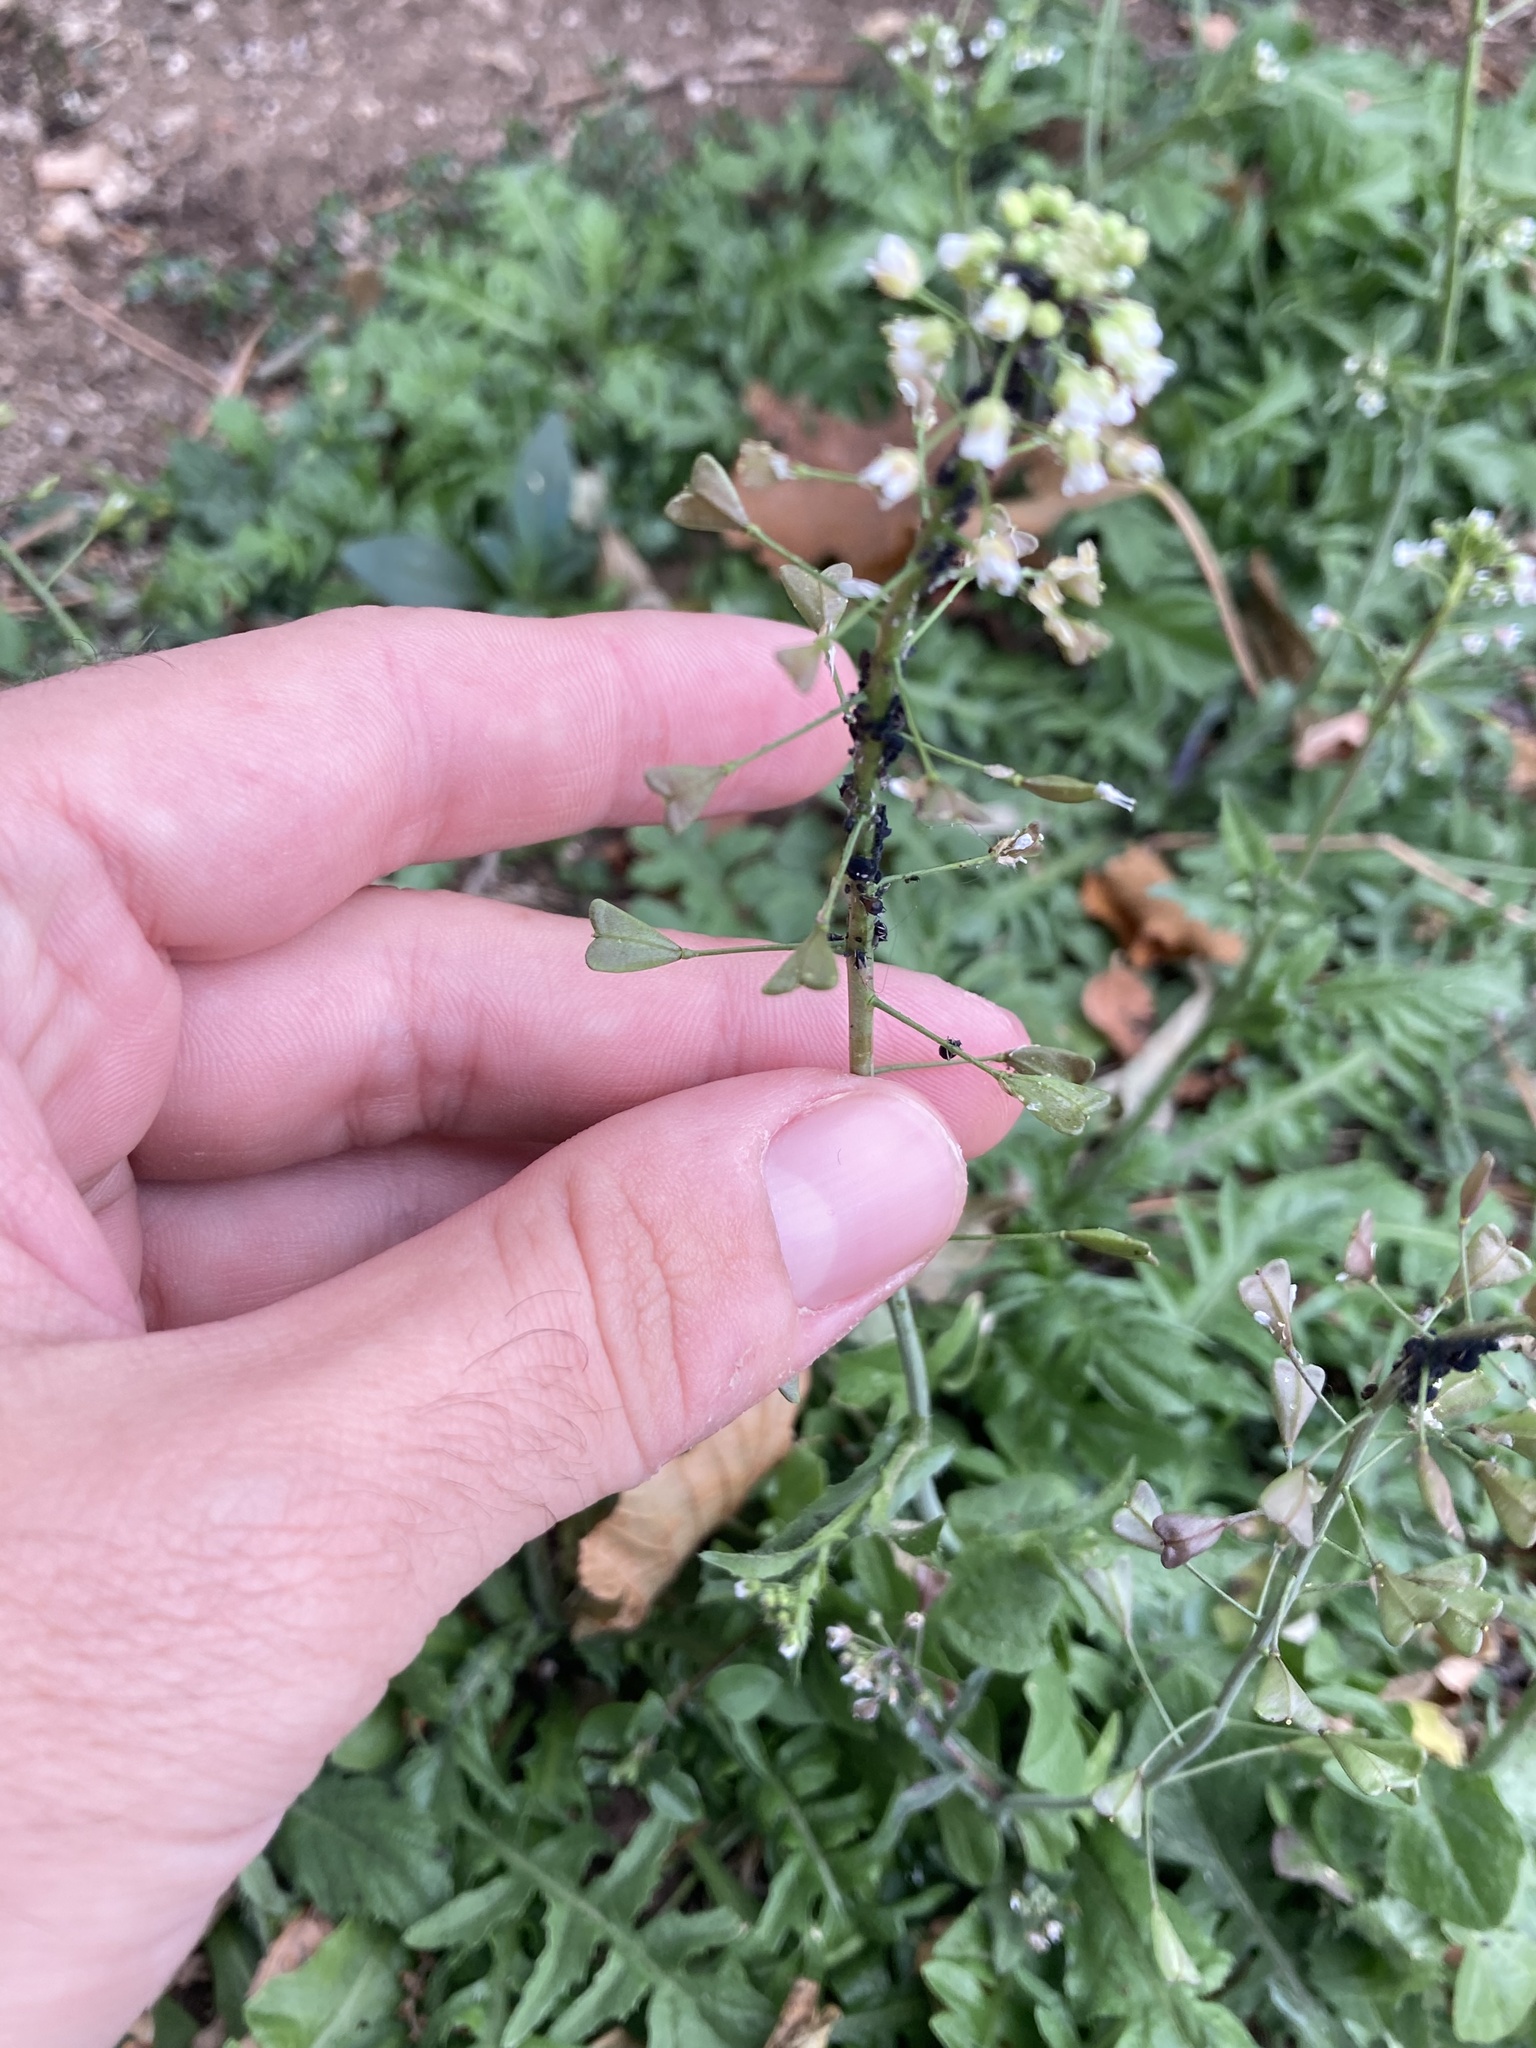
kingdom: Plantae
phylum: Tracheophyta
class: Magnoliopsida
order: Brassicales
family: Brassicaceae
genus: Capsella
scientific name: Capsella bursa-pastoris
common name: Shepherd's purse
